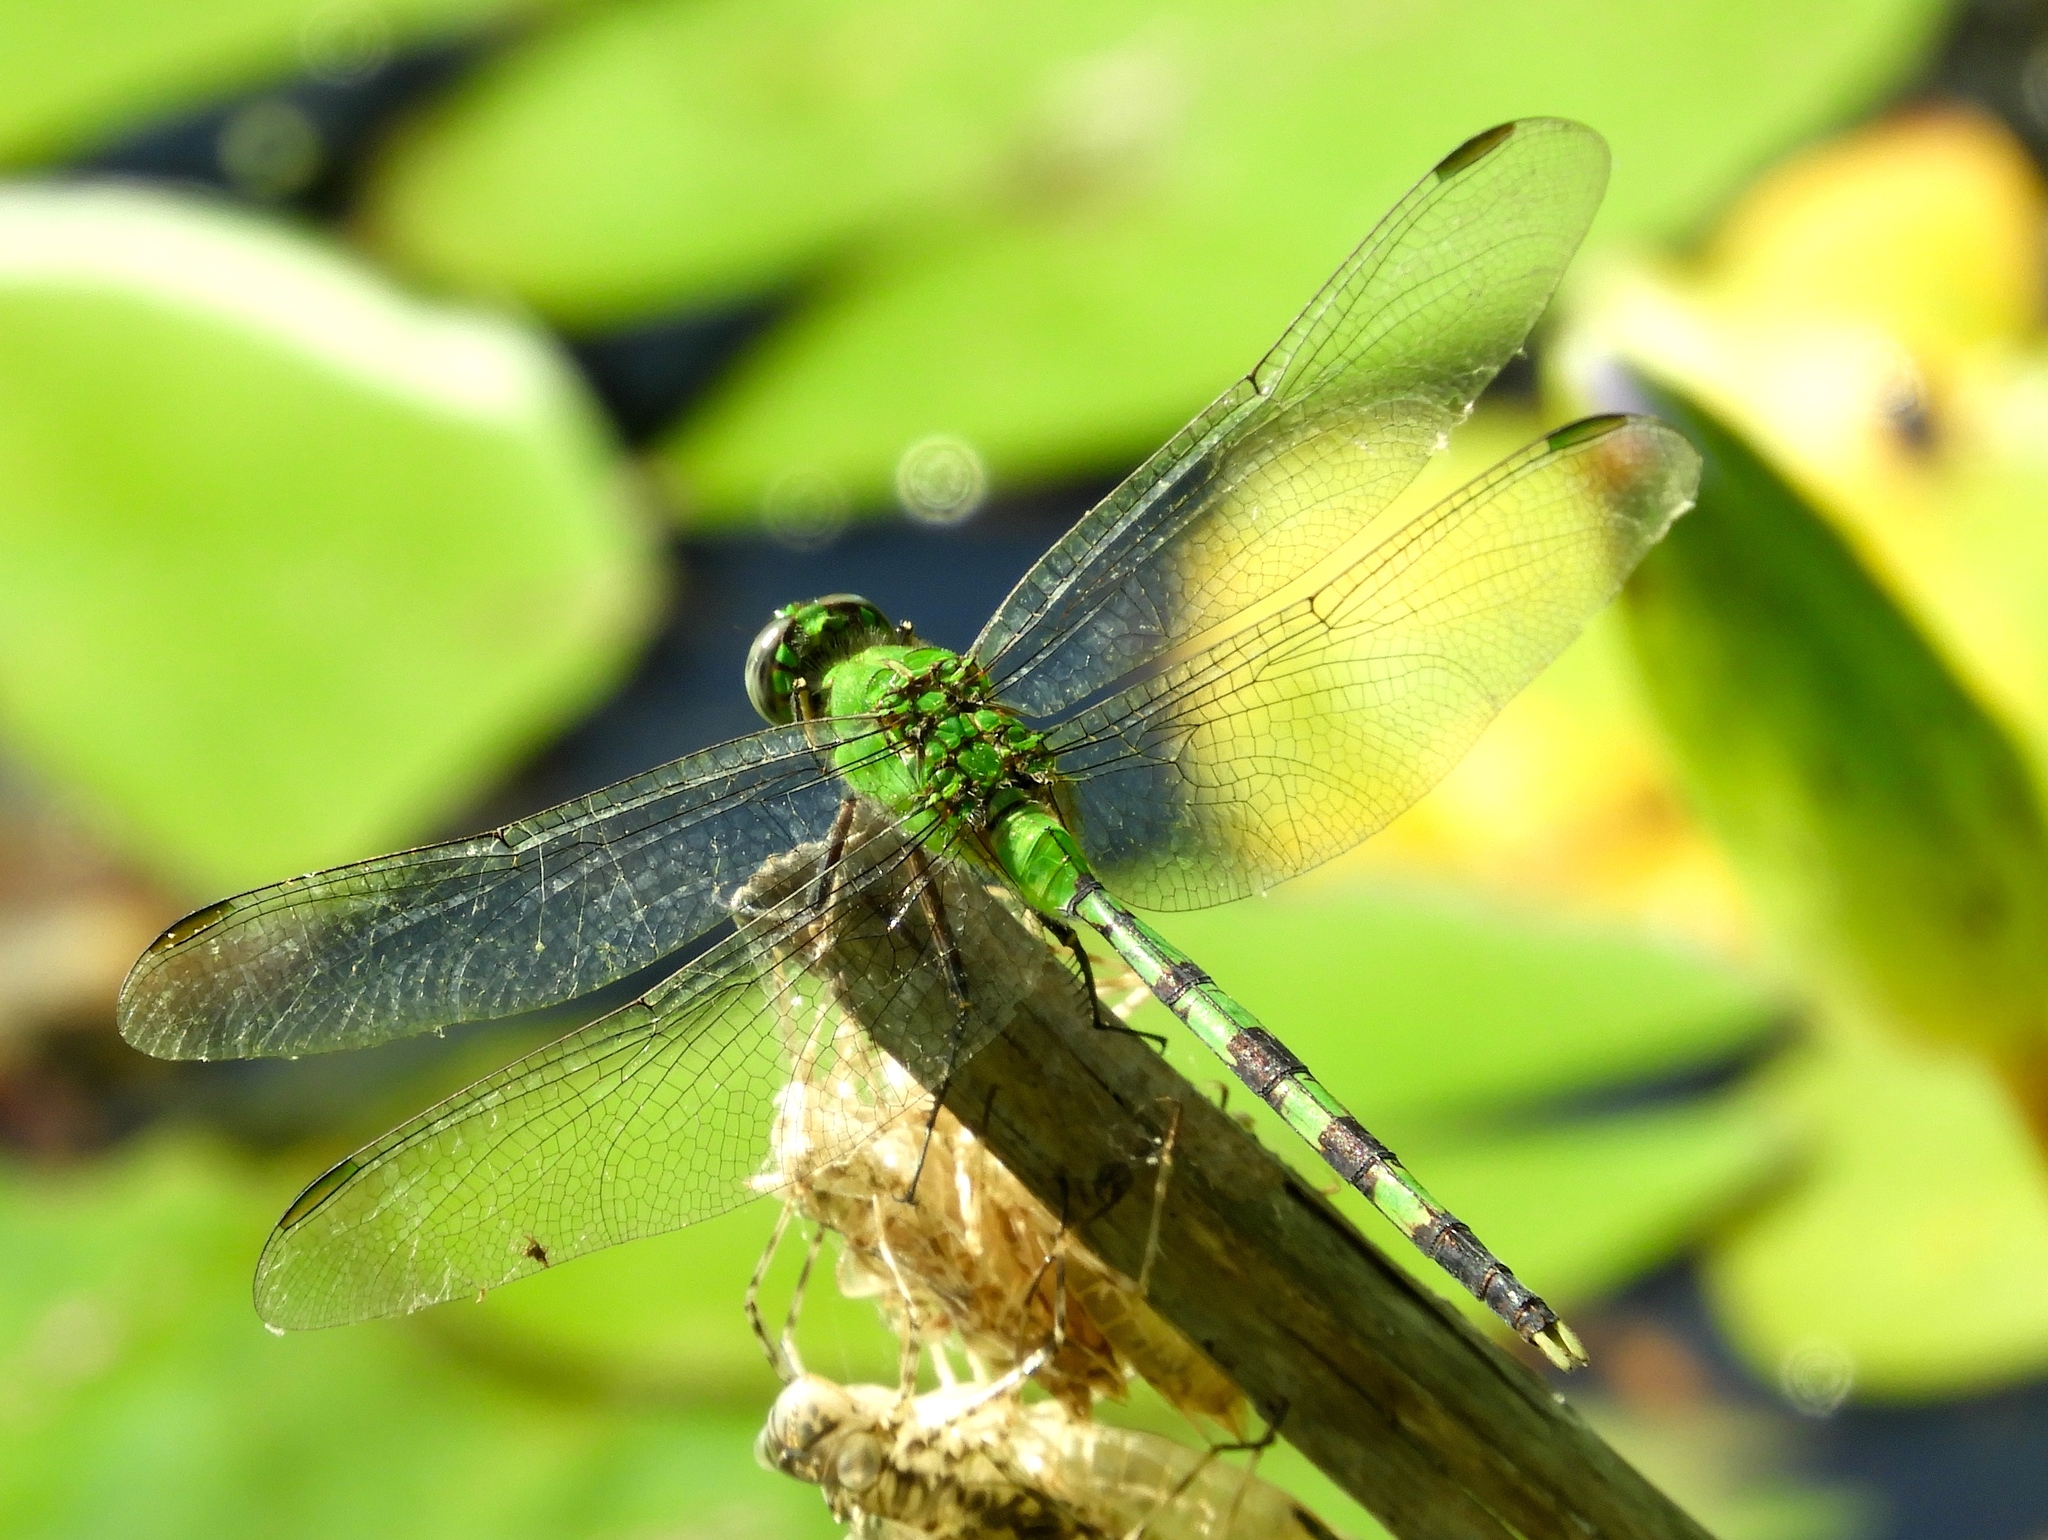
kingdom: Animalia
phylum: Arthropoda
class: Insecta
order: Odonata
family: Libellulidae
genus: Erythemis
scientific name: Erythemis vesiculosa
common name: Great pondhawk
